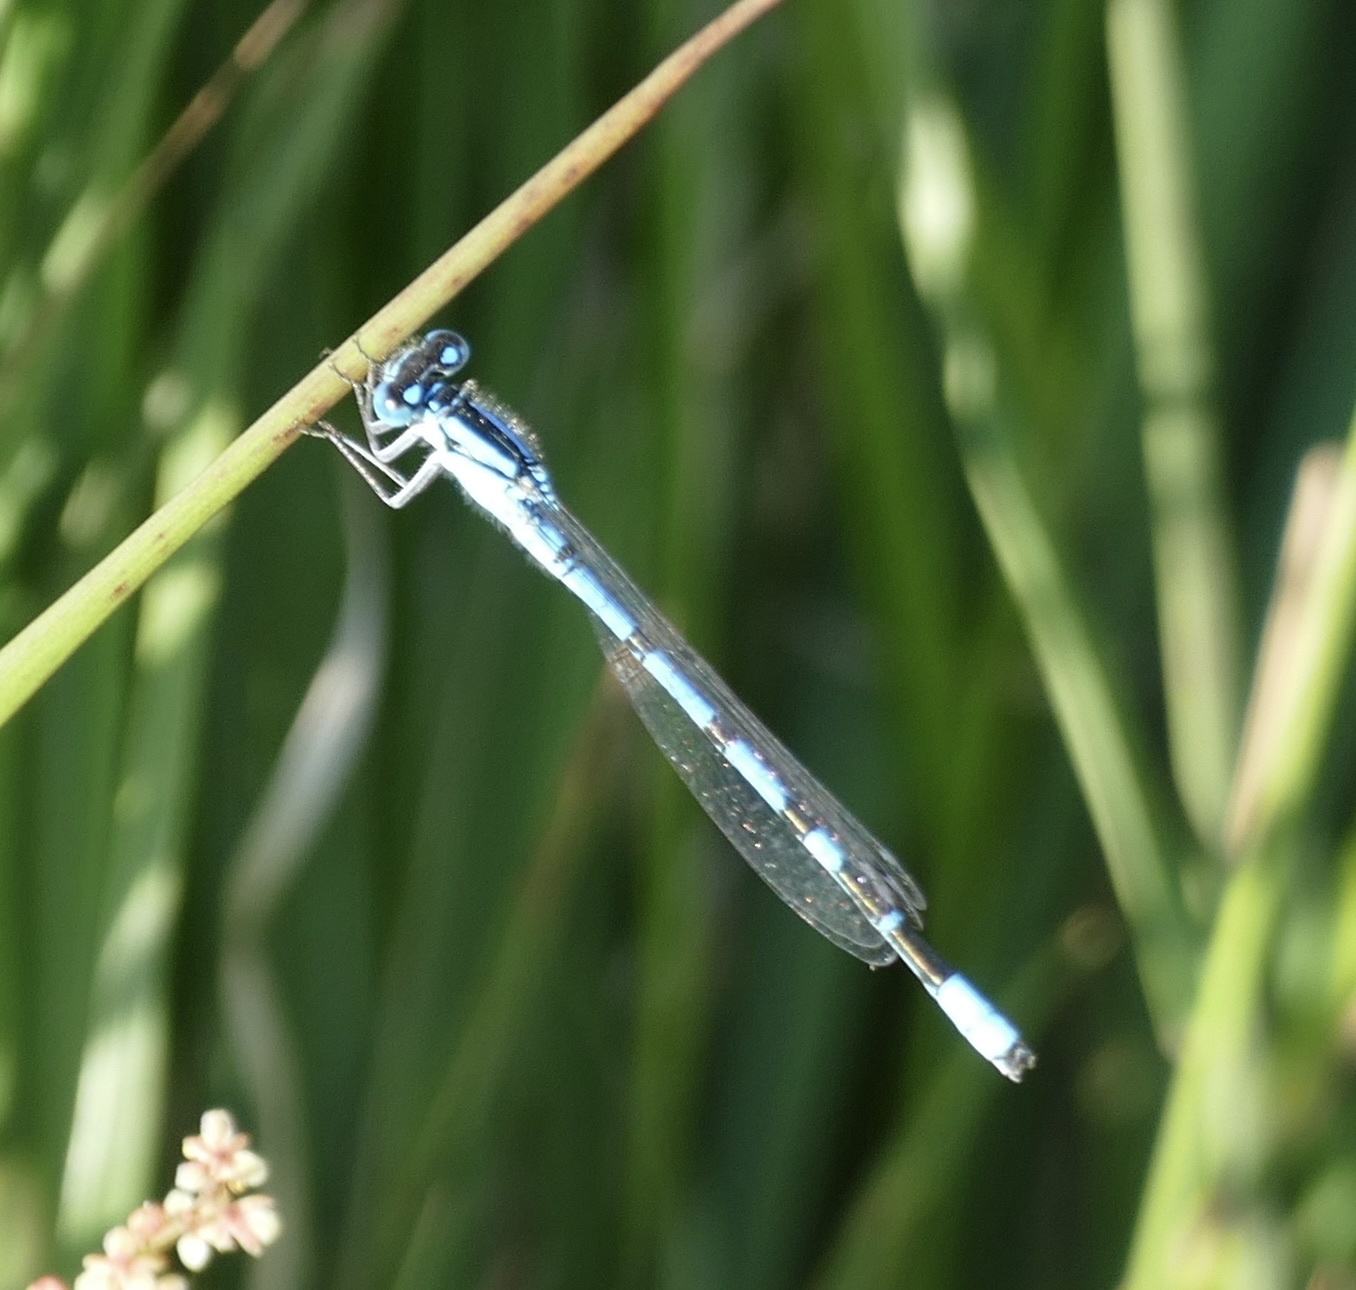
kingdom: Animalia
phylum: Arthropoda
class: Insecta
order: Odonata
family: Coenagrionidae
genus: Enallagma
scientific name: Enallagma cyathigerum
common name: Common blue damselfly
